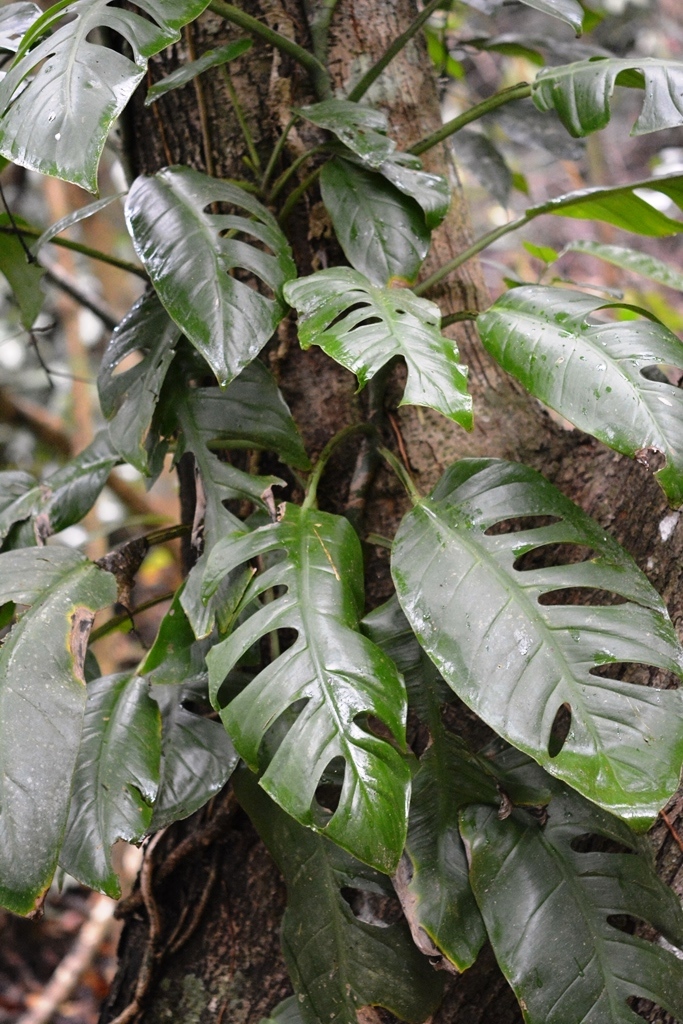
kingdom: Plantae
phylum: Tracheophyta
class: Liliopsida
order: Alismatales
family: Araceae
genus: Monstera
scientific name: Monstera acuminata
